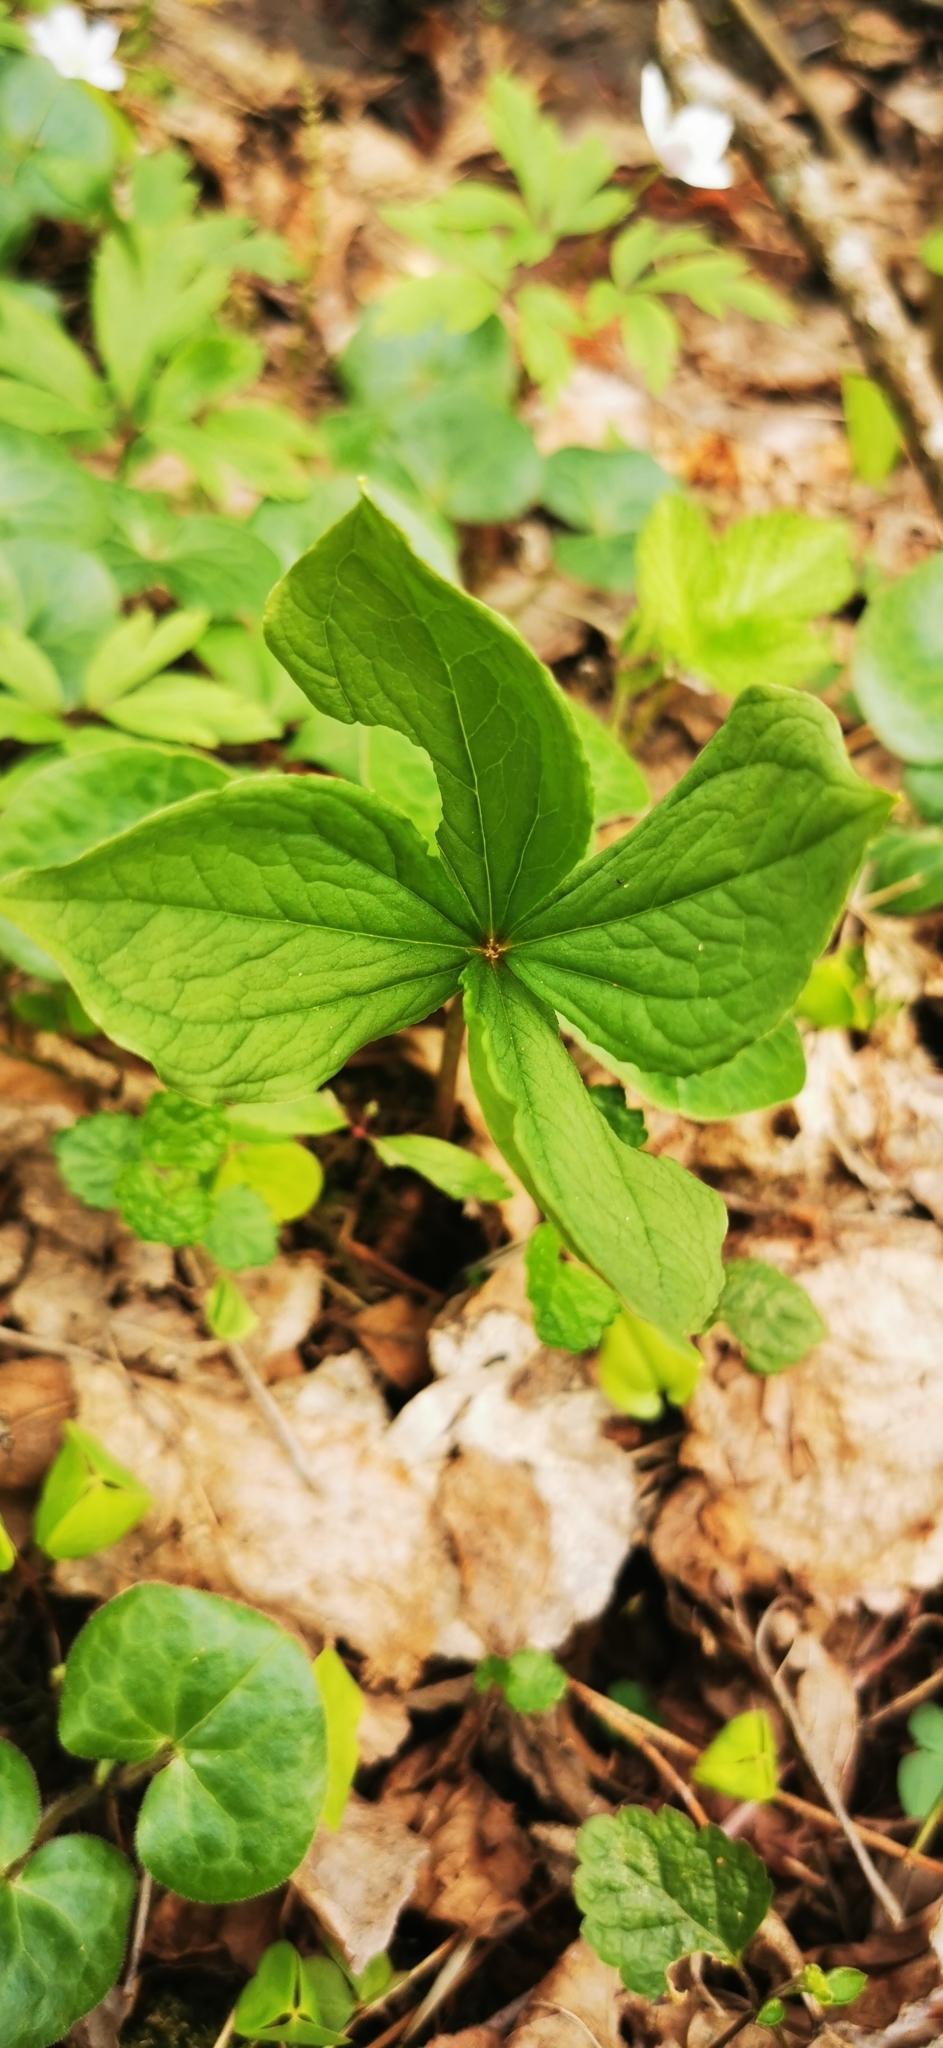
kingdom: Plantae
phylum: Tracheophyta
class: Liliopsida
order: Liliales
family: Melanthiaceae
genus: Paris
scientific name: Paris quadrifolia
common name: Herb-paris
